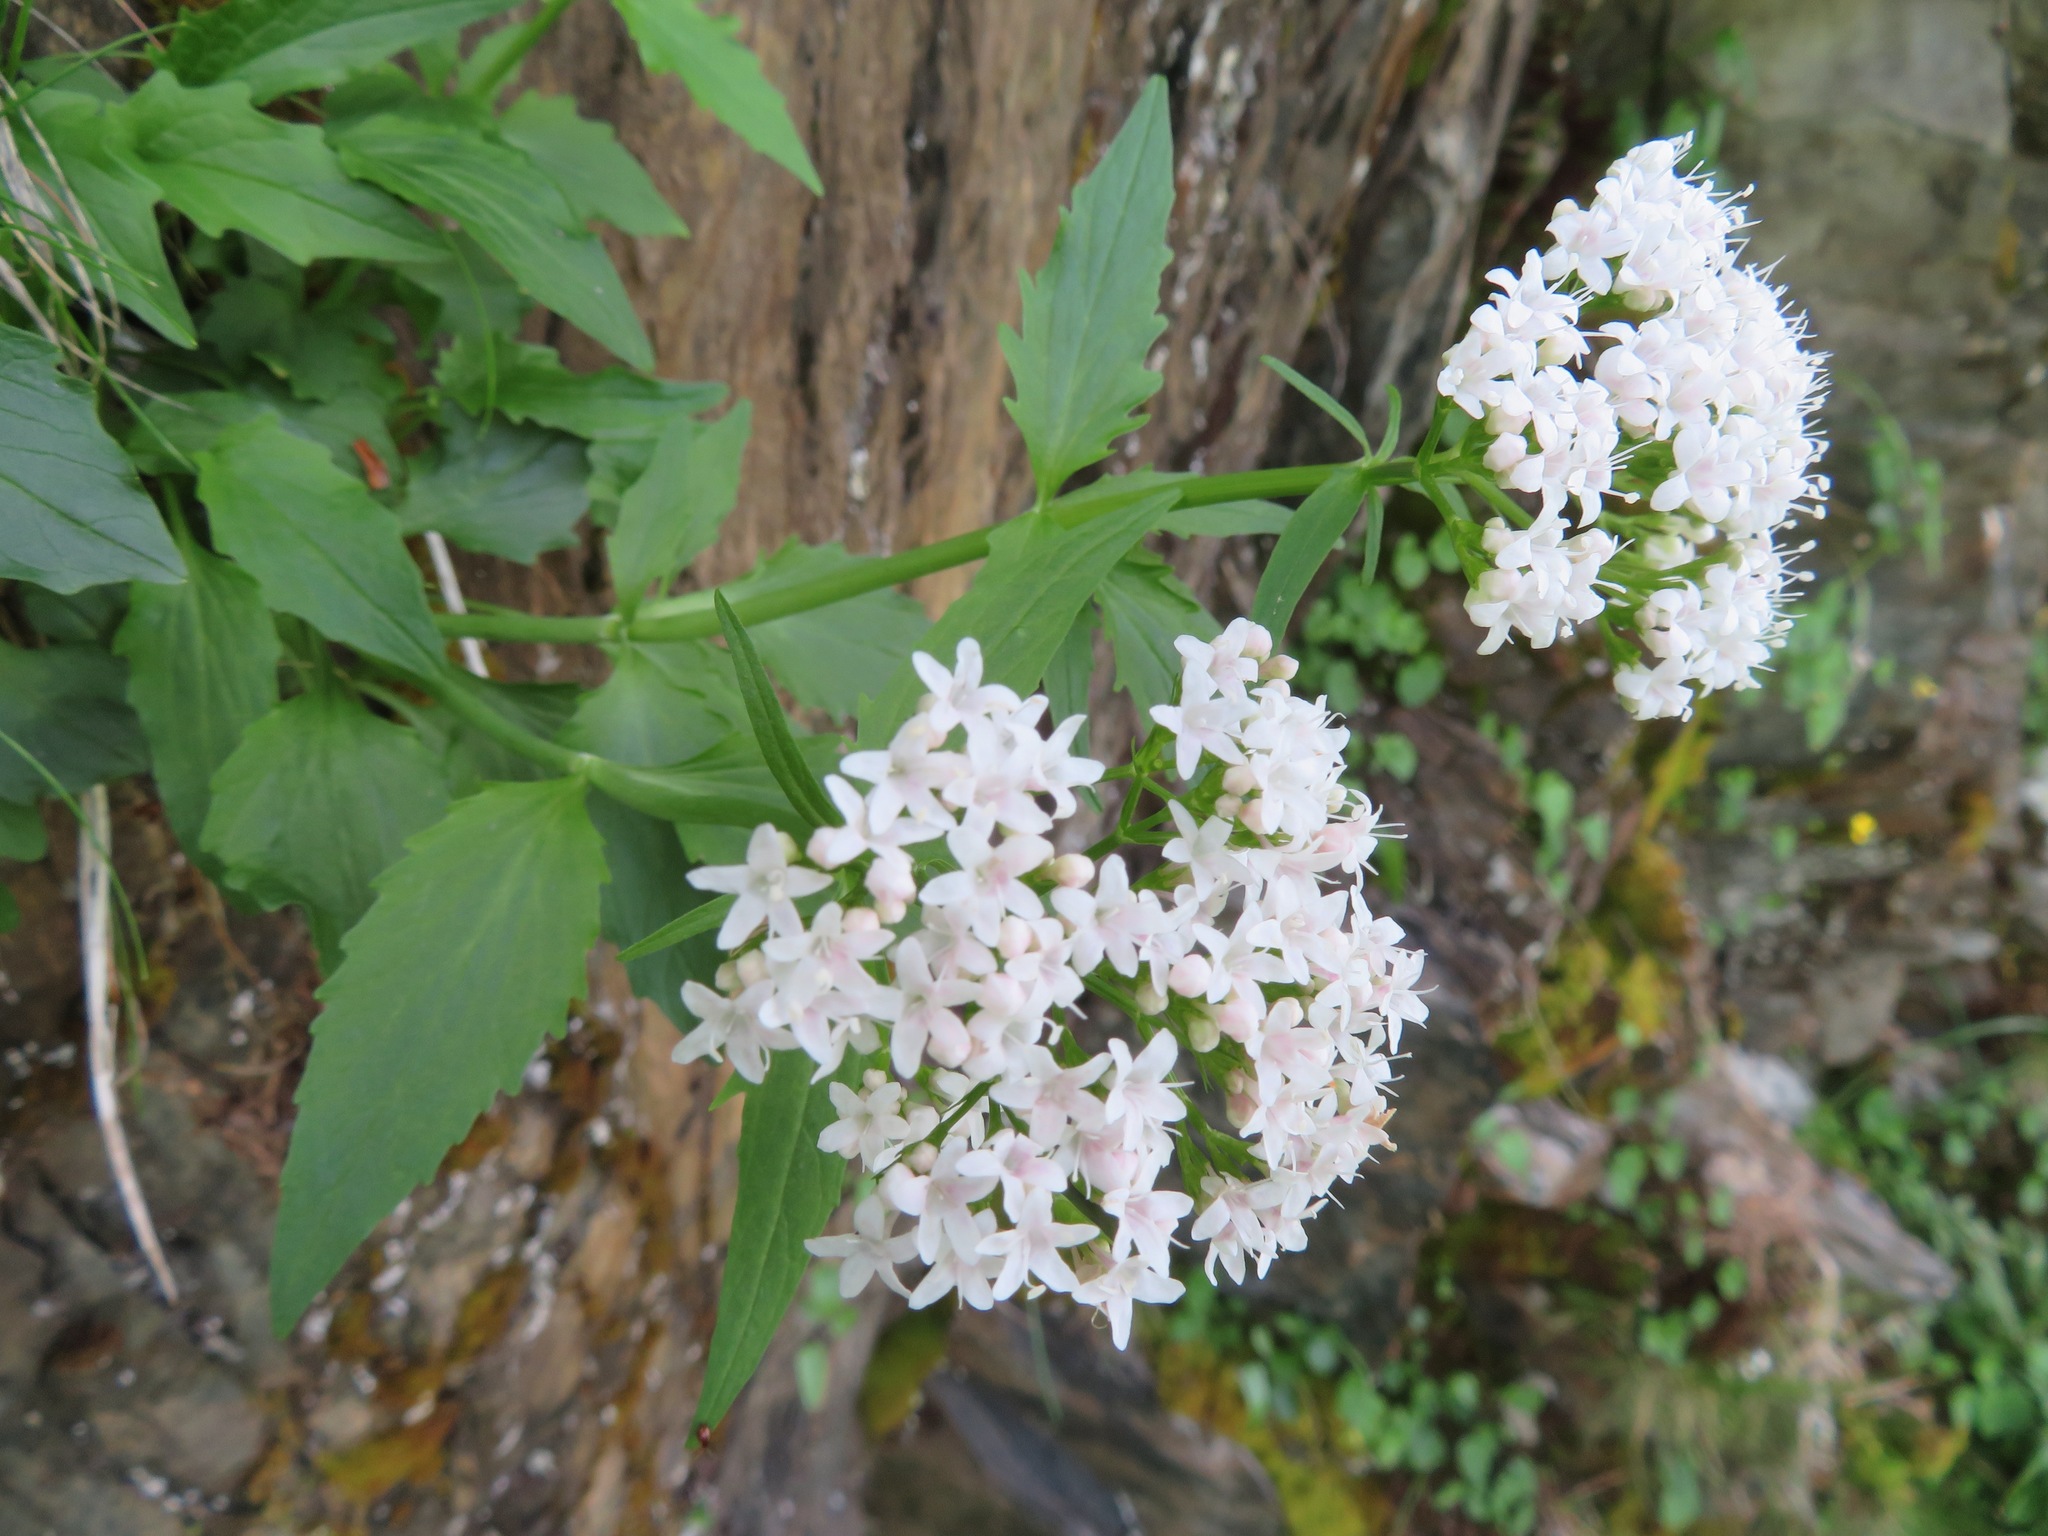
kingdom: Plantae
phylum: Tracheophyta
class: Magnoliopsida
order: Dipsacales
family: Caprifoliaceae
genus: Valeriana
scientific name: Valeriana montana
